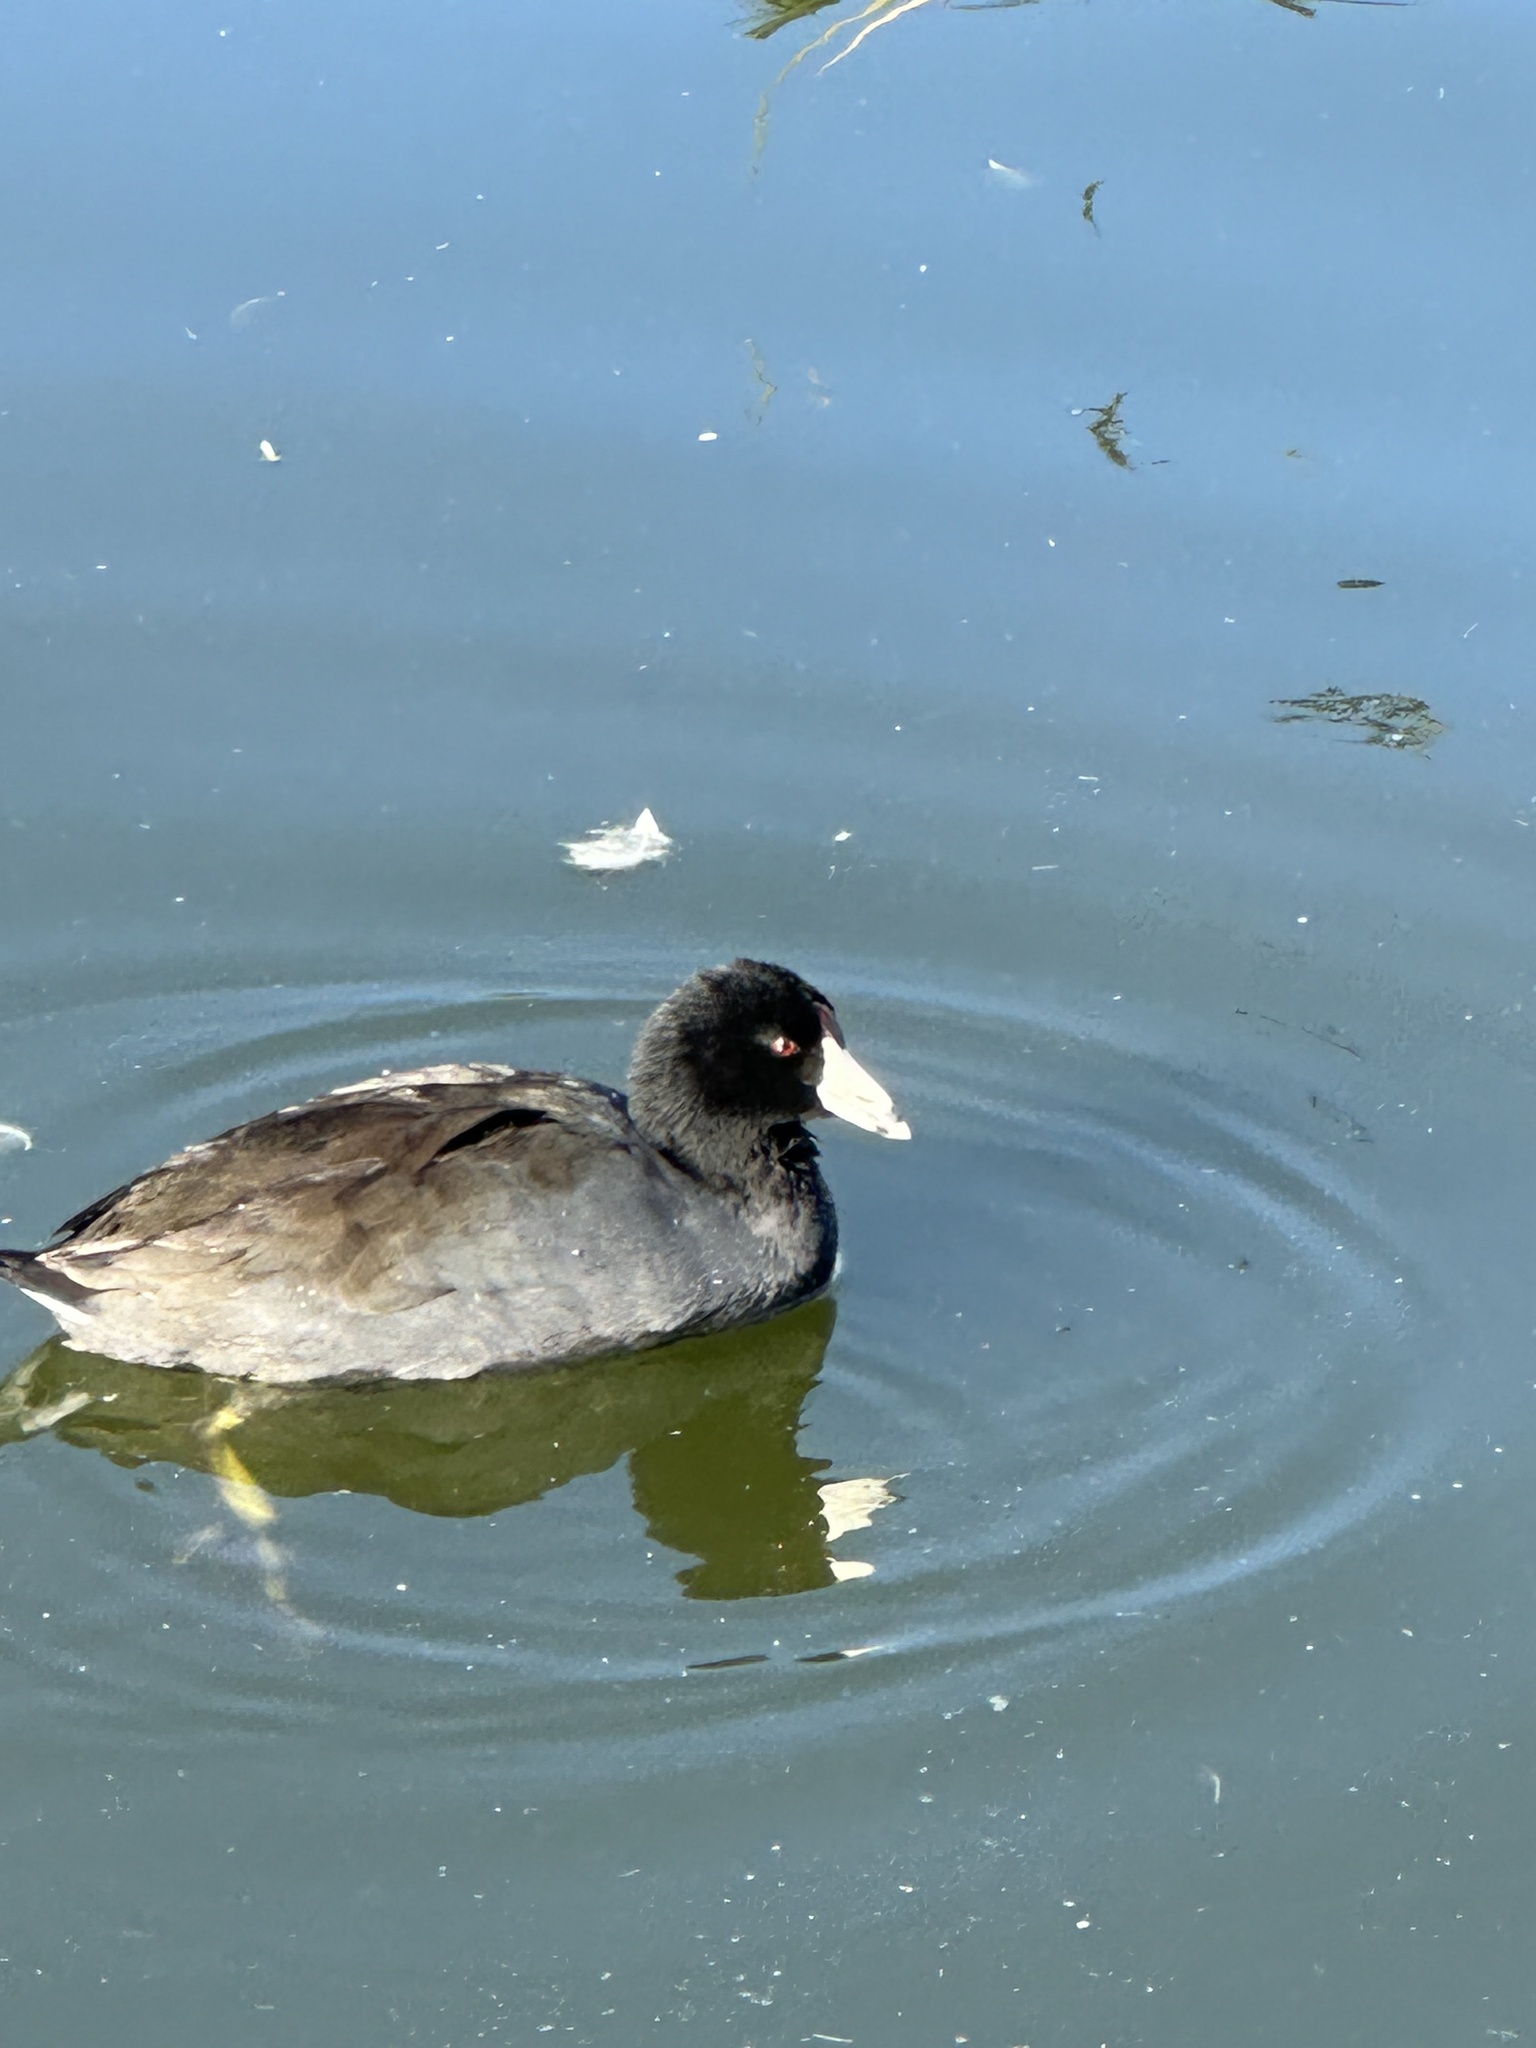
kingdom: Animalia
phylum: Chordata
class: Aves
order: Gruiformes
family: Rallidae
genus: Fulica
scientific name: Fulica americana
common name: American coot
